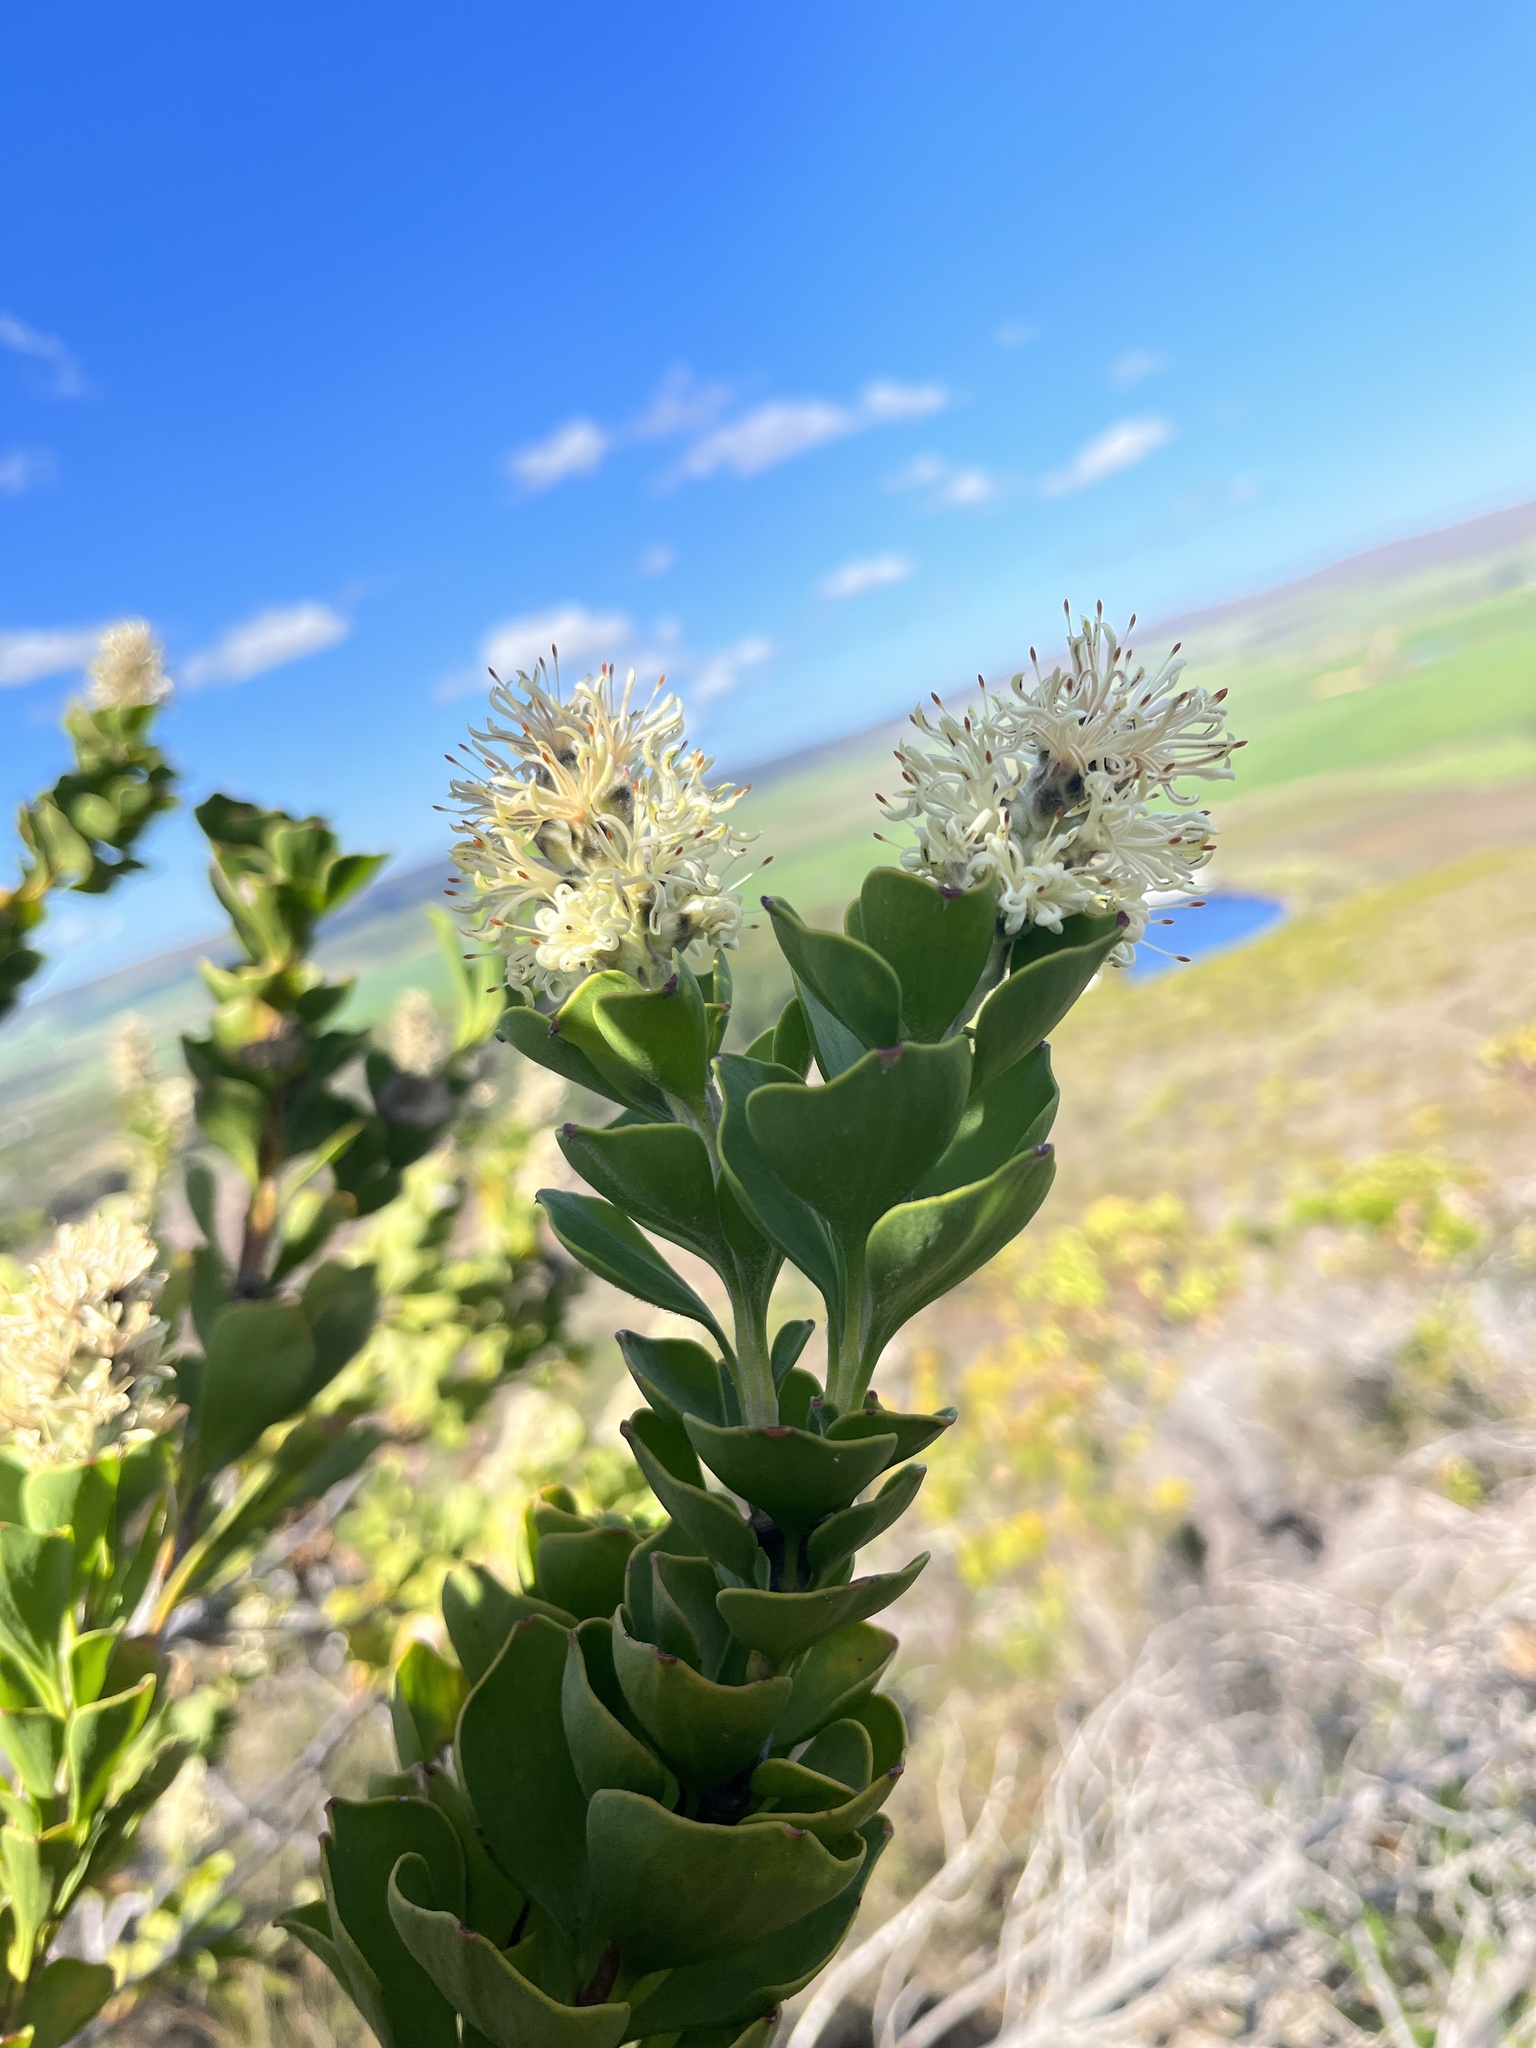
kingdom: Plantae
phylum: Tracheophyta
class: Magnoliopsida
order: Proteales
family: Proteaceae
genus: Paranomus
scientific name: Paranomus sceptrum-gustavianus
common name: King gustav's sceptre
